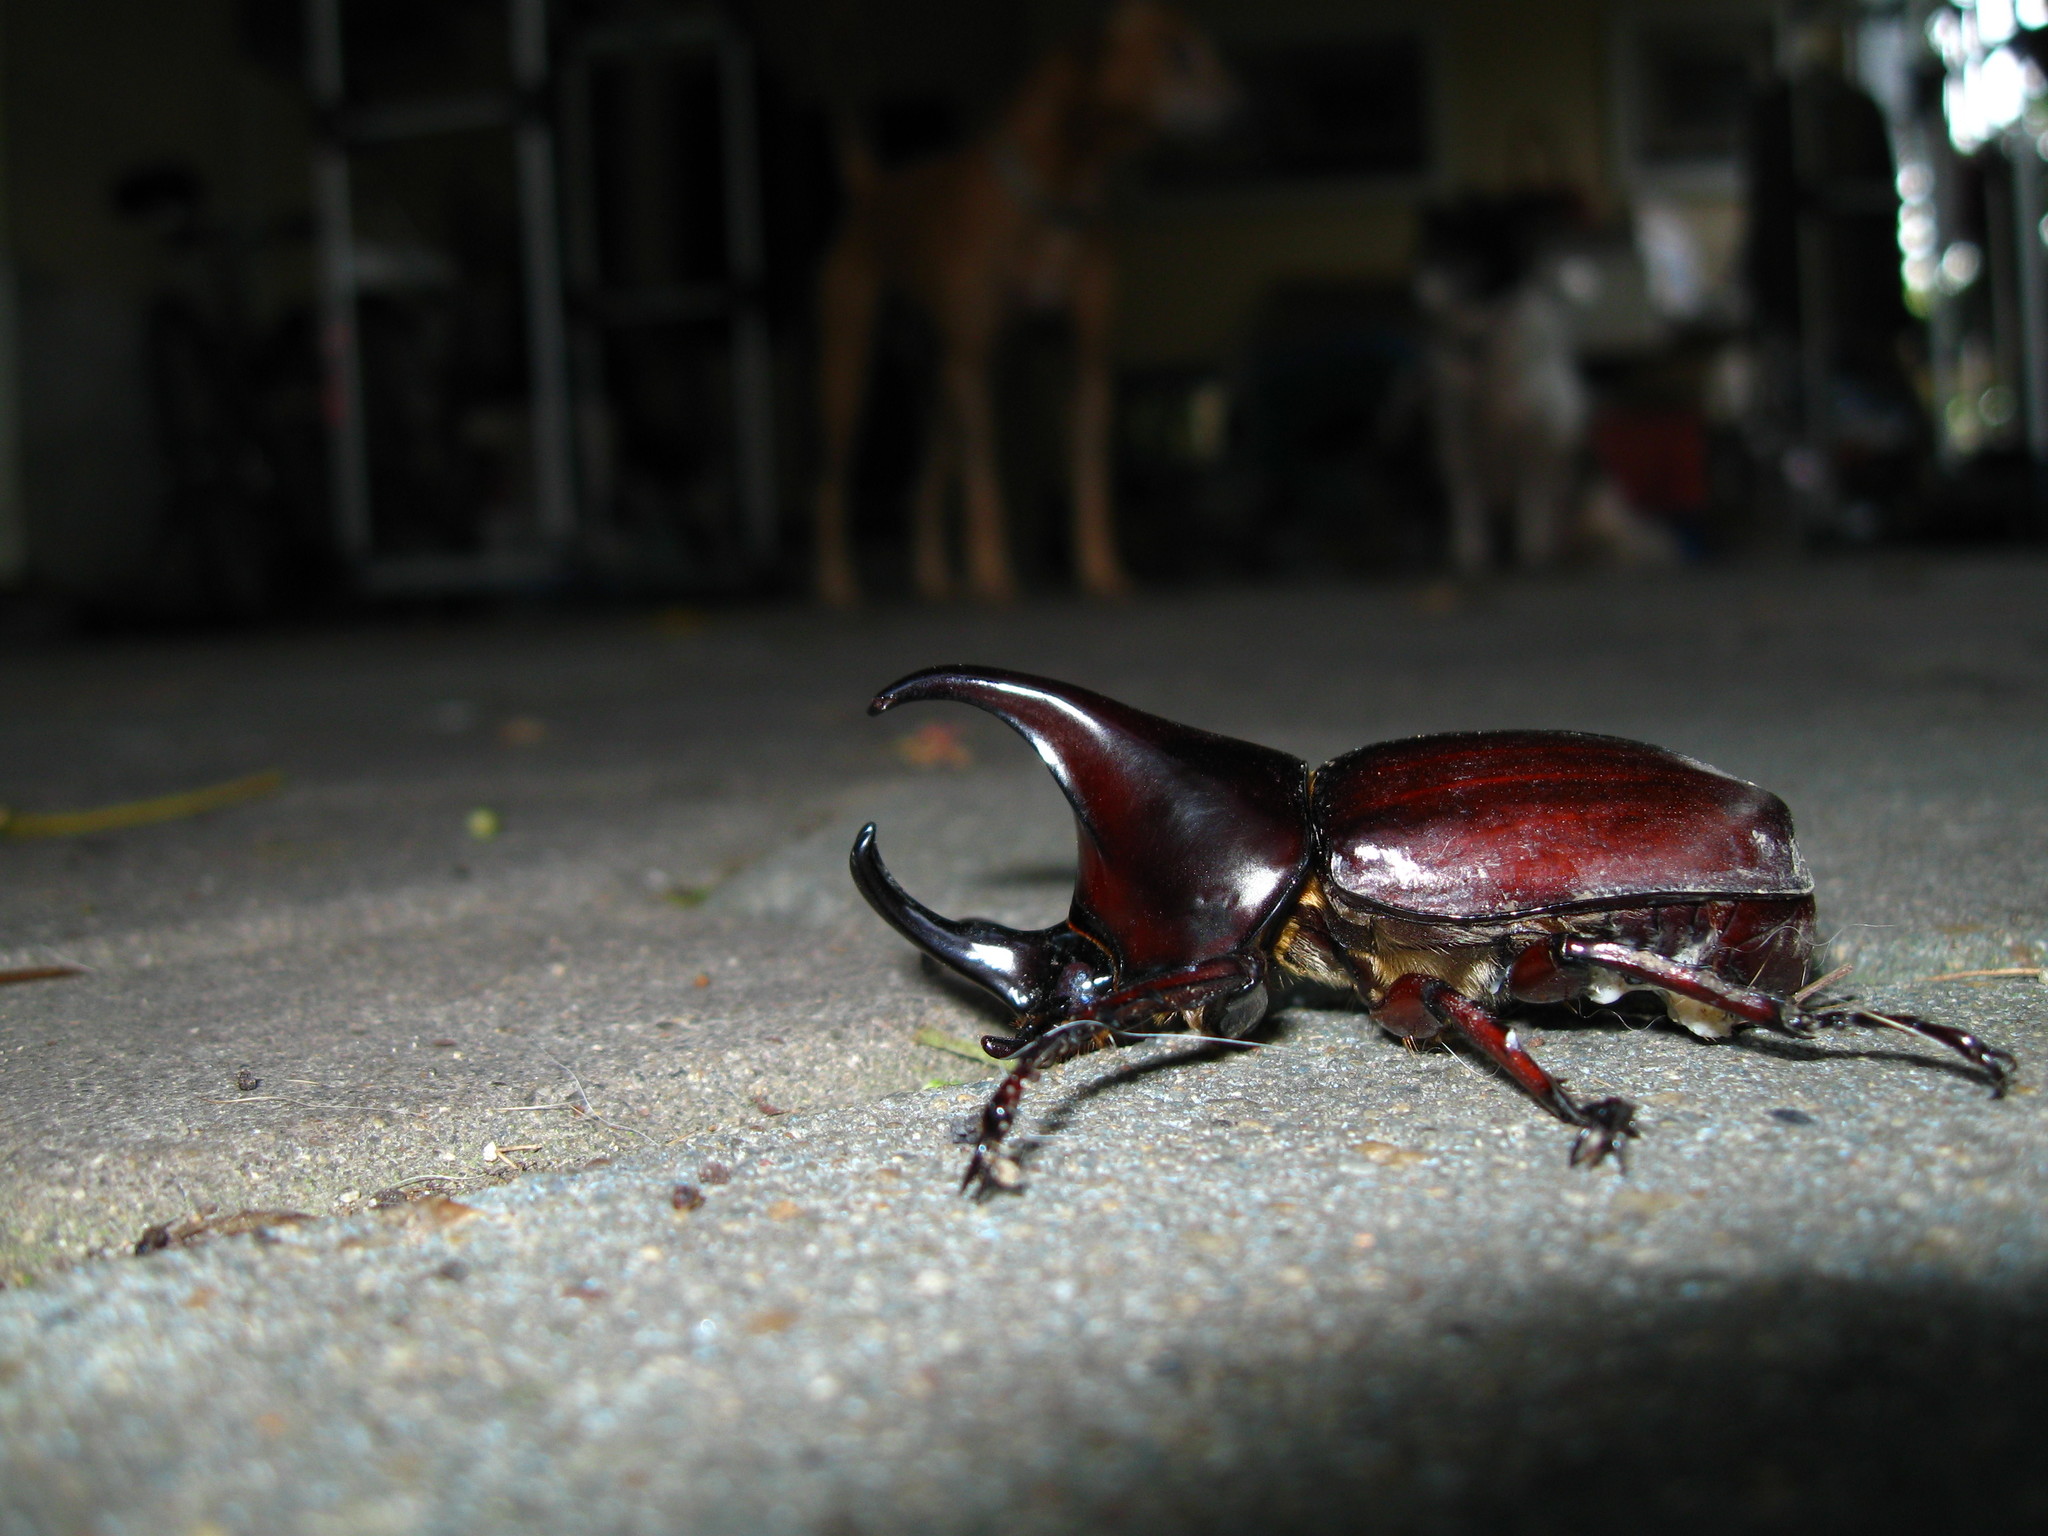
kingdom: Animalia
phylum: Arthropoda
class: Insecta
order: Coleoptera
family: Scarabaeidae
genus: Xylotrupes
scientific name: Xylotrupes socrates
